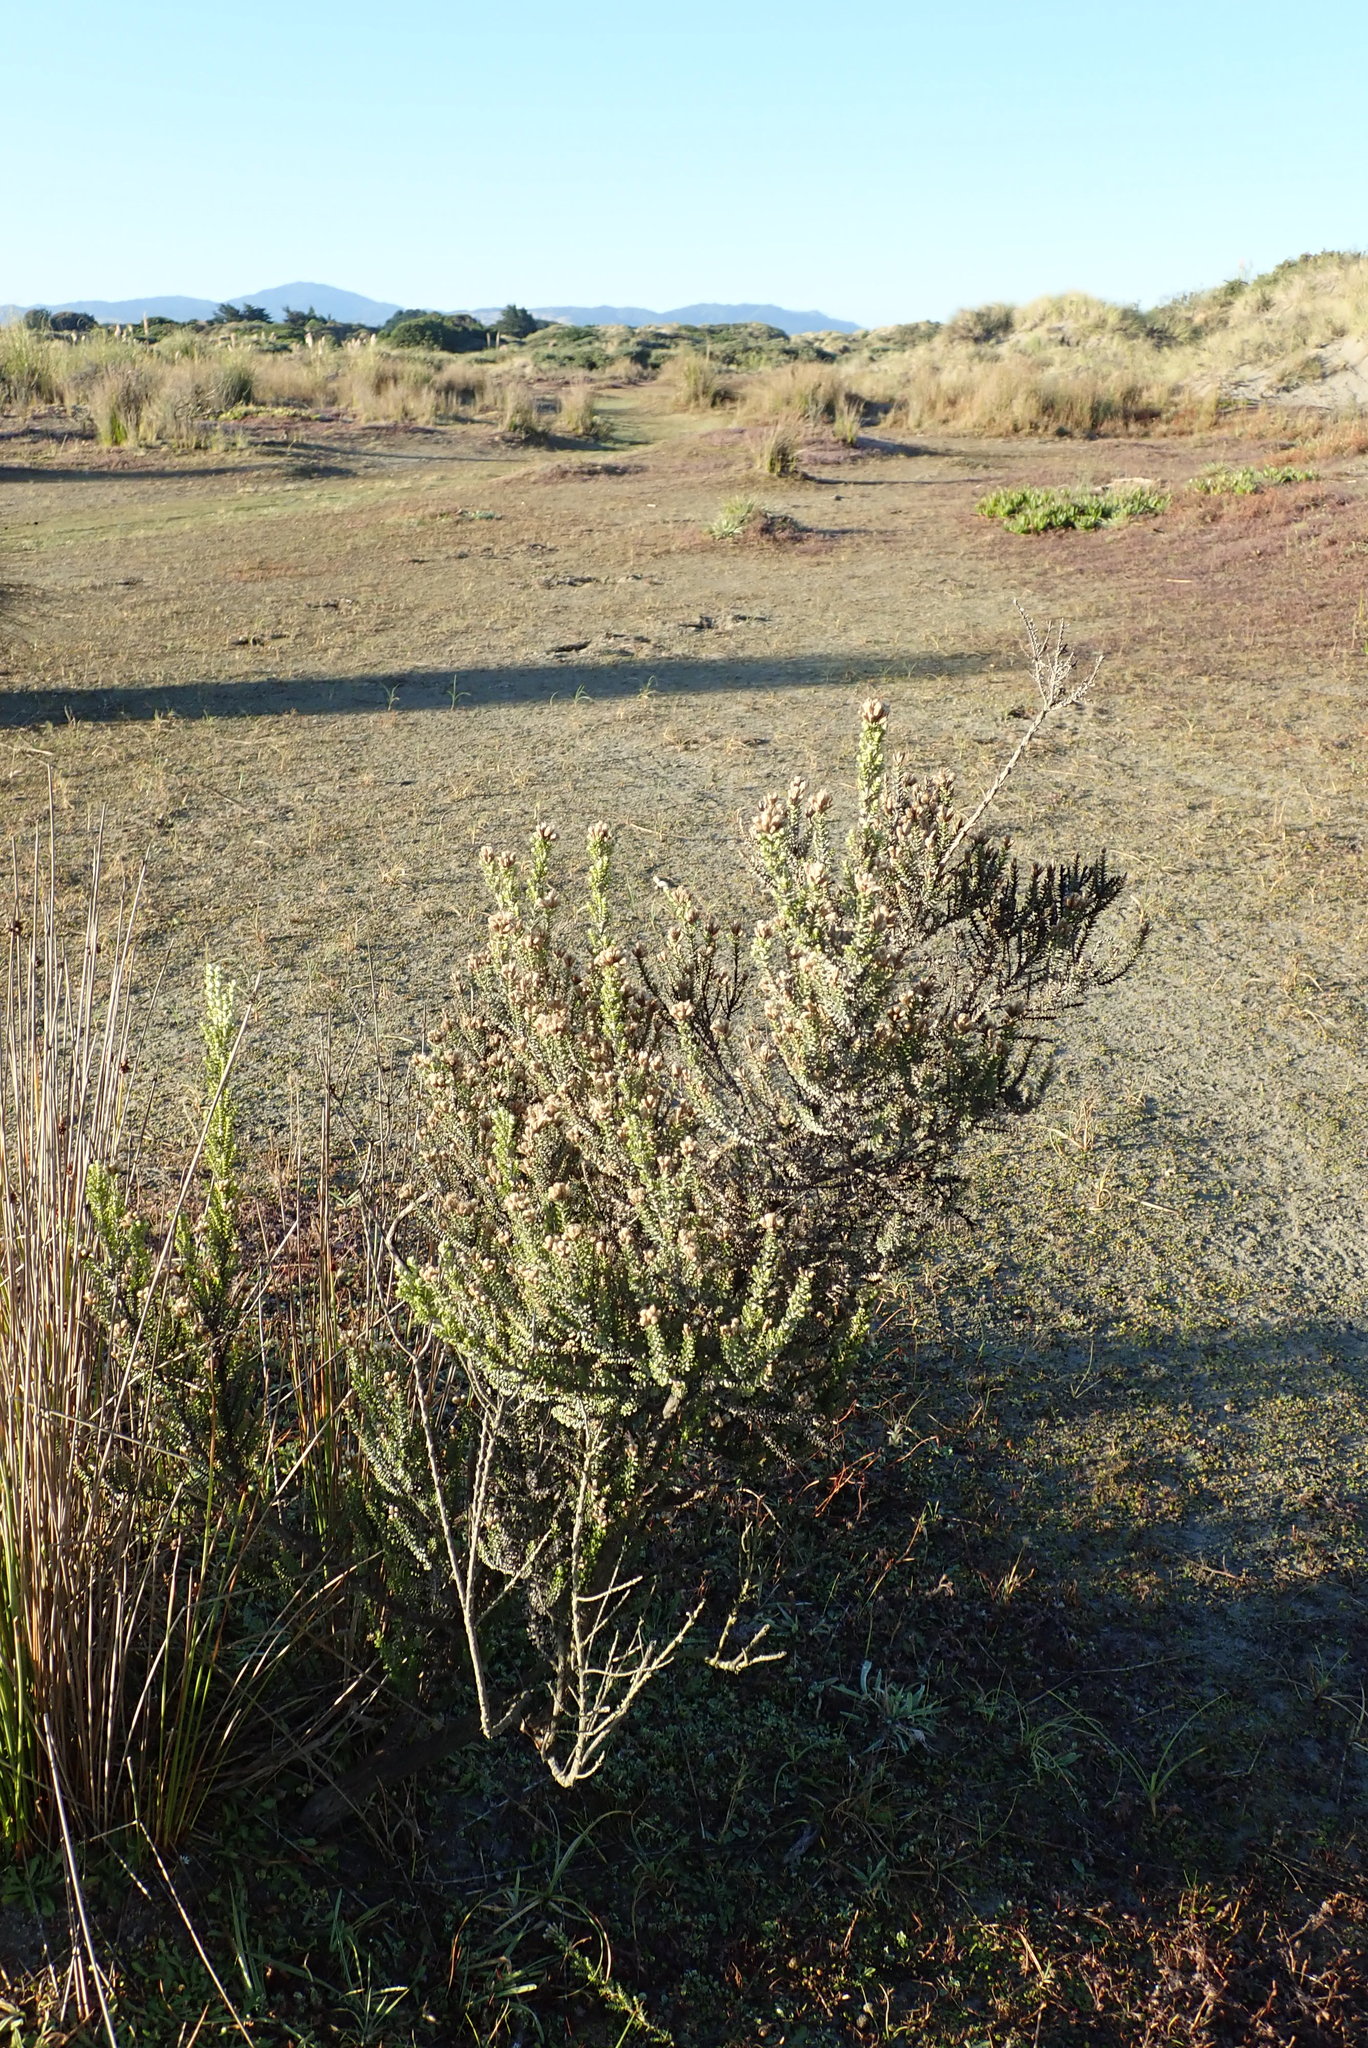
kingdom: Plantae
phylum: Tracheophyta
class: Magnoliopsida
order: Asterales
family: Asteraceae
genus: Ozothamnus
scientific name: Ozothamnus leptophyllus
